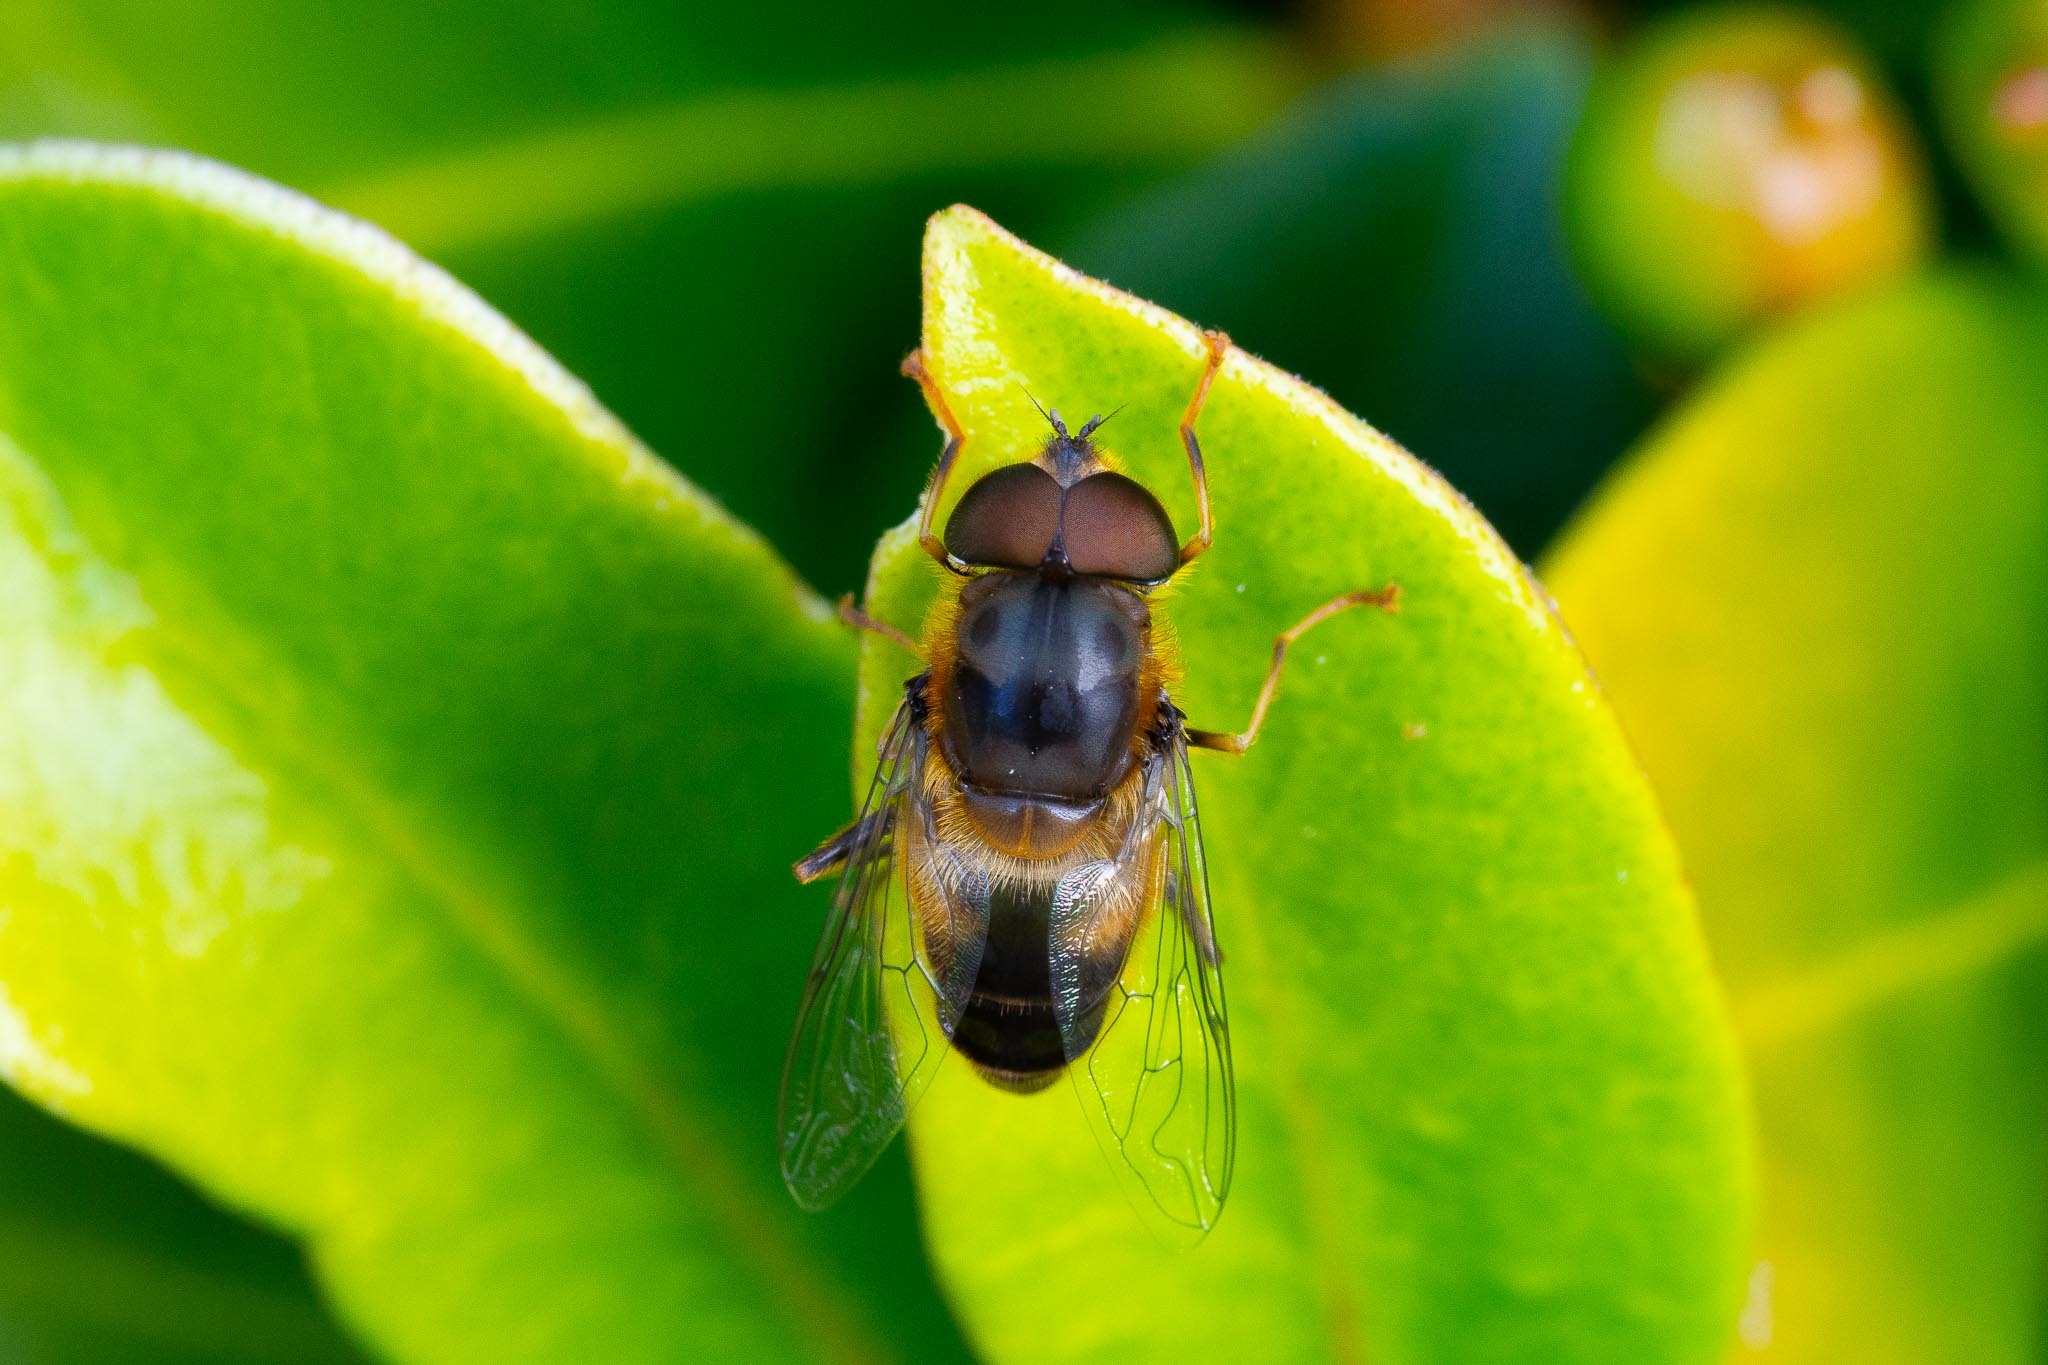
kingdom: Animalia
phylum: Arthropoda
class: Insecta
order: Diptera
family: Syrphidae
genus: Eristalis
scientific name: Eristalis pertinax
